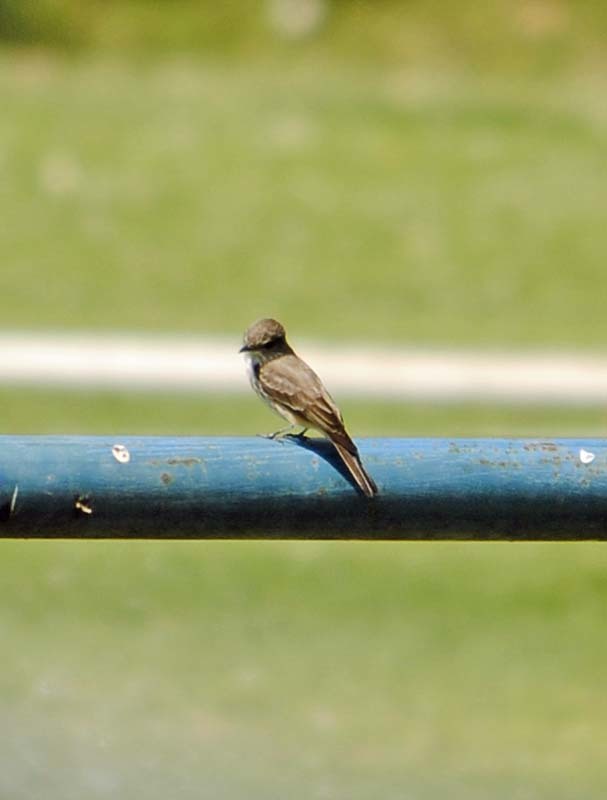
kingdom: Animalia
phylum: Chordata
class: Aves
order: Passeriformes
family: Tyrannidae
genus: Pyrocephalus
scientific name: Pyrocephalus rubinus
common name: Vermilion flycatcher
